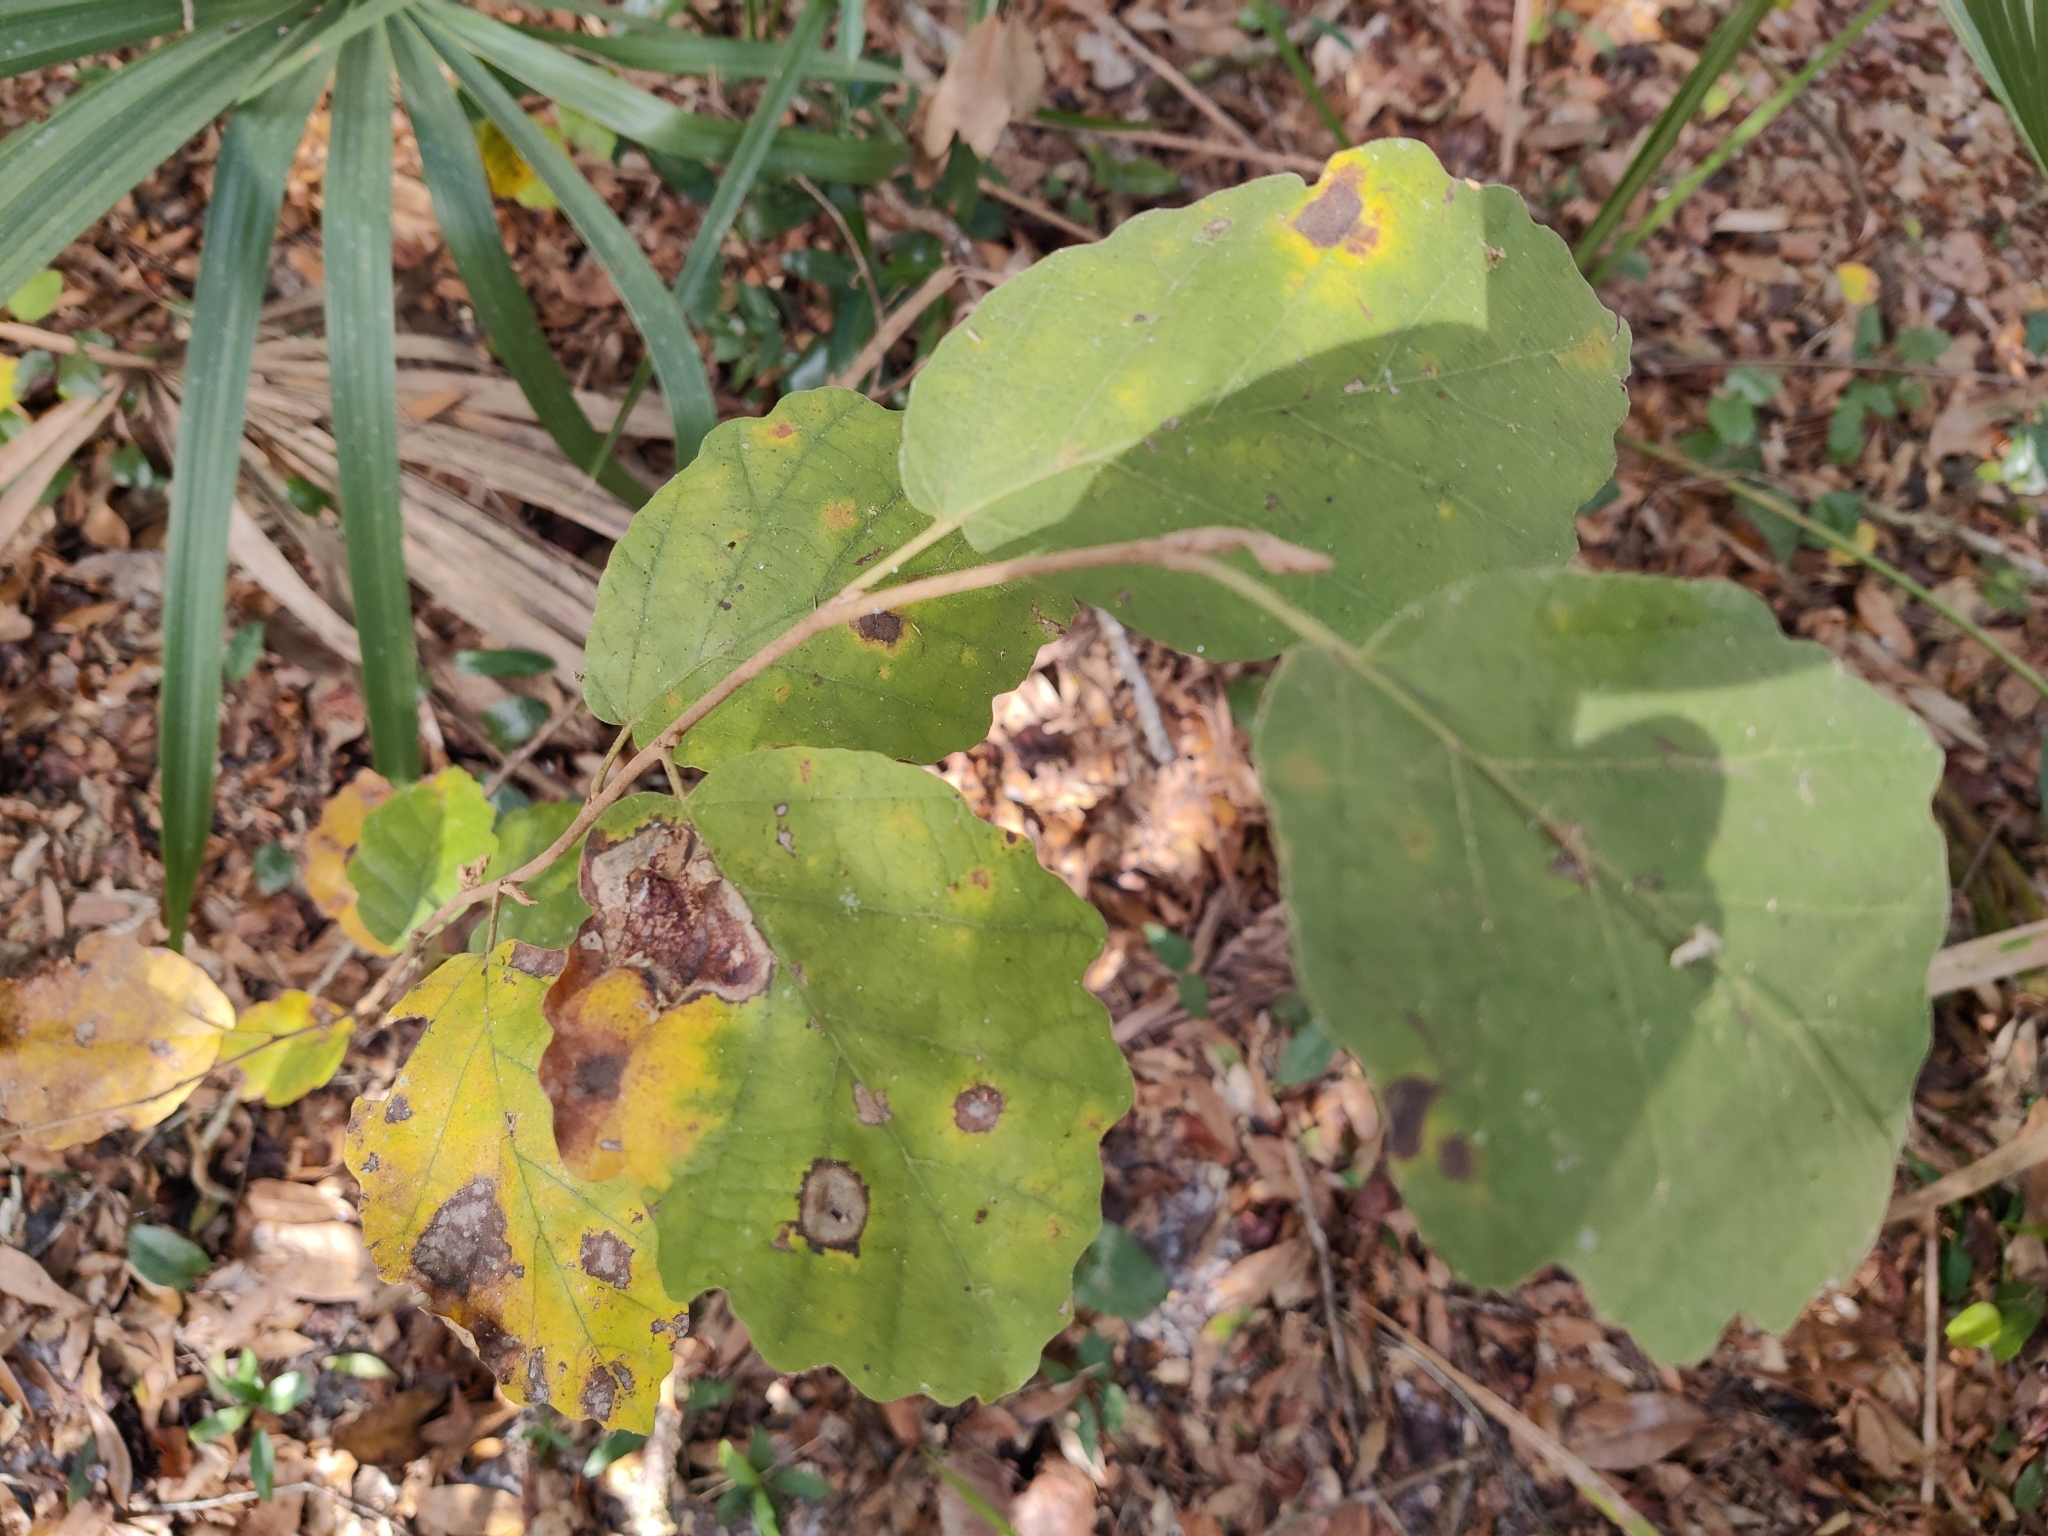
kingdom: Plantae
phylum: Tracheophyta
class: Magnoliopsida
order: Saxifragales
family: Hamamelidaceae
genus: Hamamelis
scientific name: Hamamelis virginiana
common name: Witch-hazel
